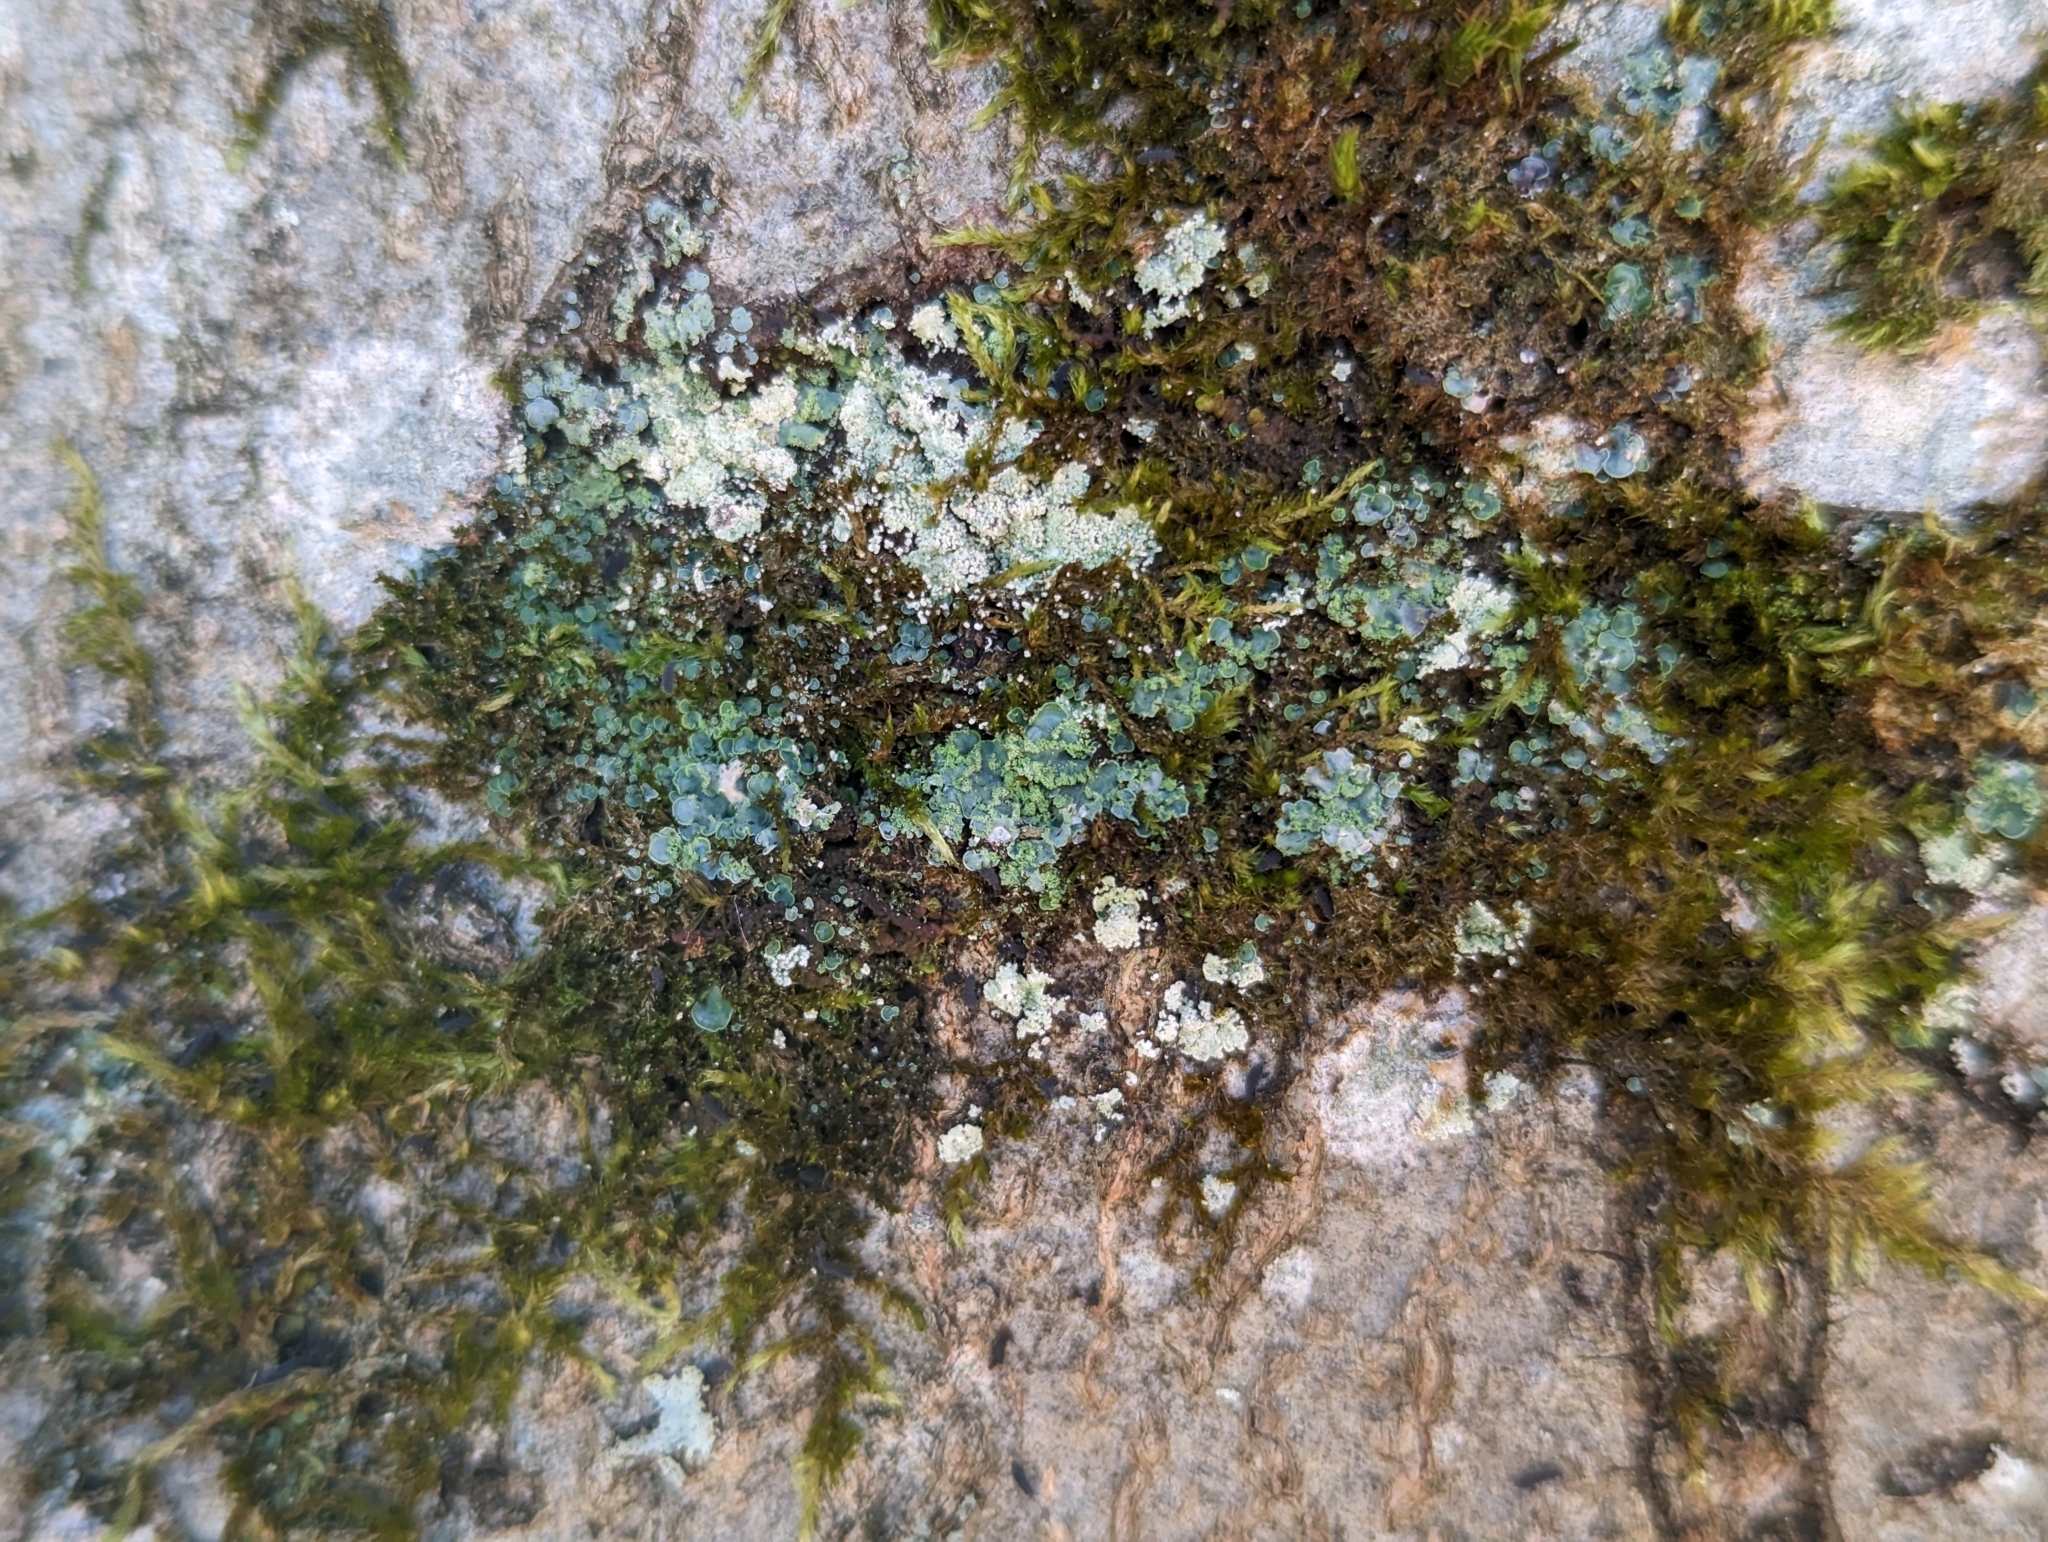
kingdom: Fungi
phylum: Ascomycota
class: Eurotiomycetes
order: Verrucariales
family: Verrucariaceae
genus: Normandina
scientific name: Normandina pulchella
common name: Elf ears lichen
